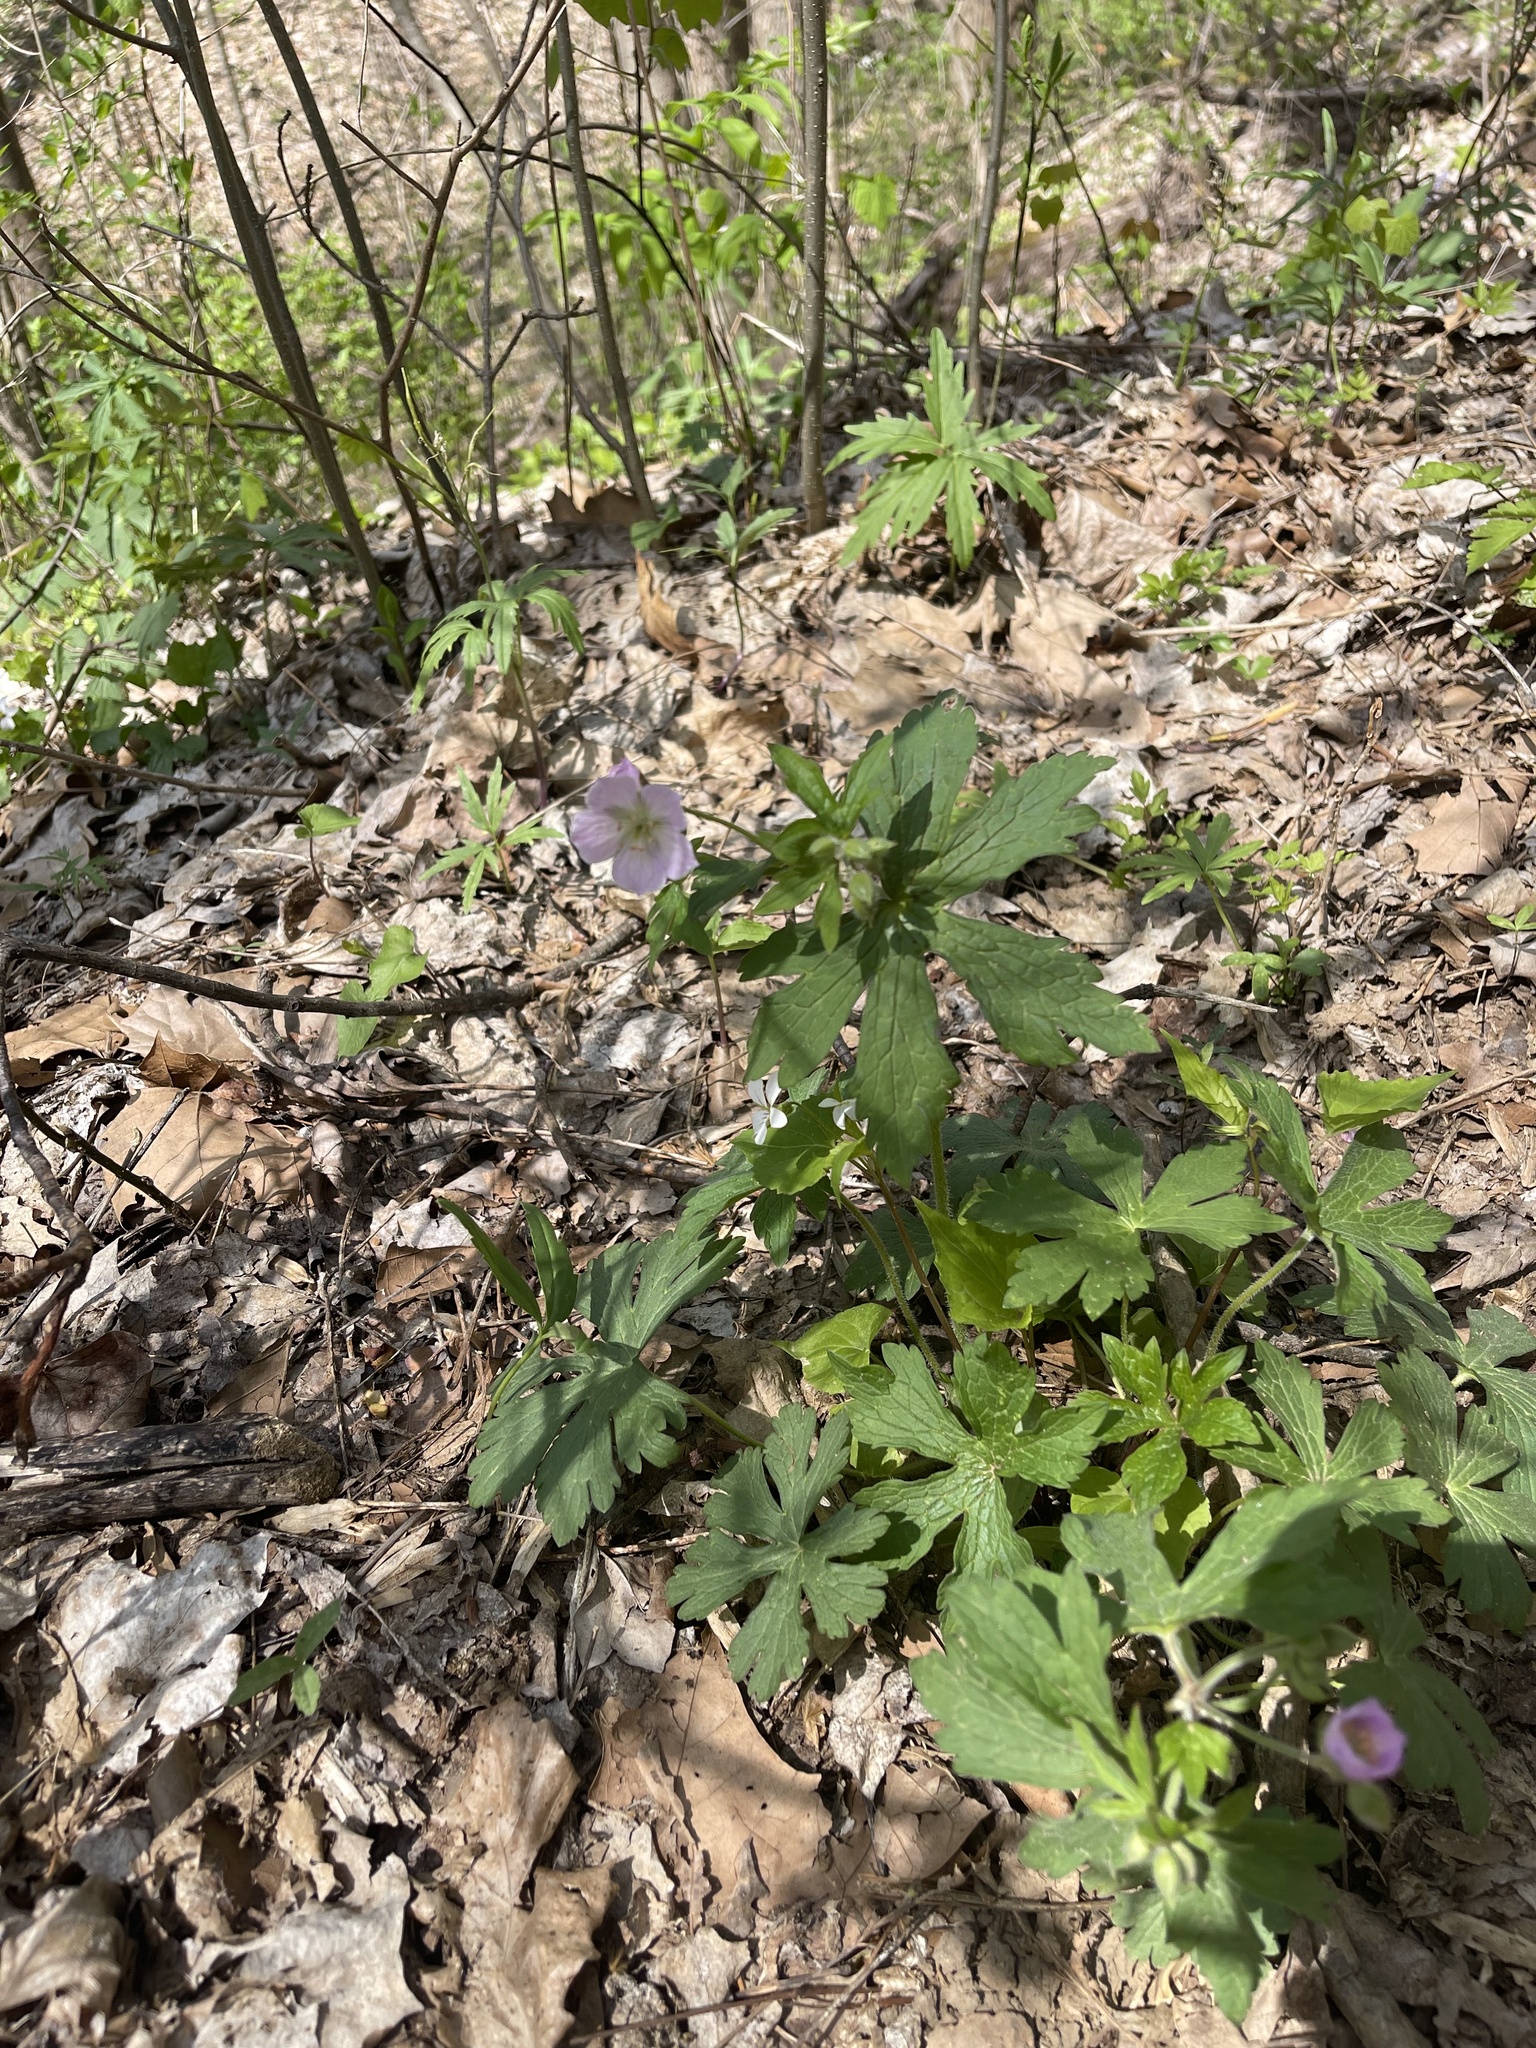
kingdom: Plantae
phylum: Tracheophyta
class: Magnoliopsida
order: Geraniales
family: Geraniaceae
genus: Geranium
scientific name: Geranium maculatum
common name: Spotted geranium
